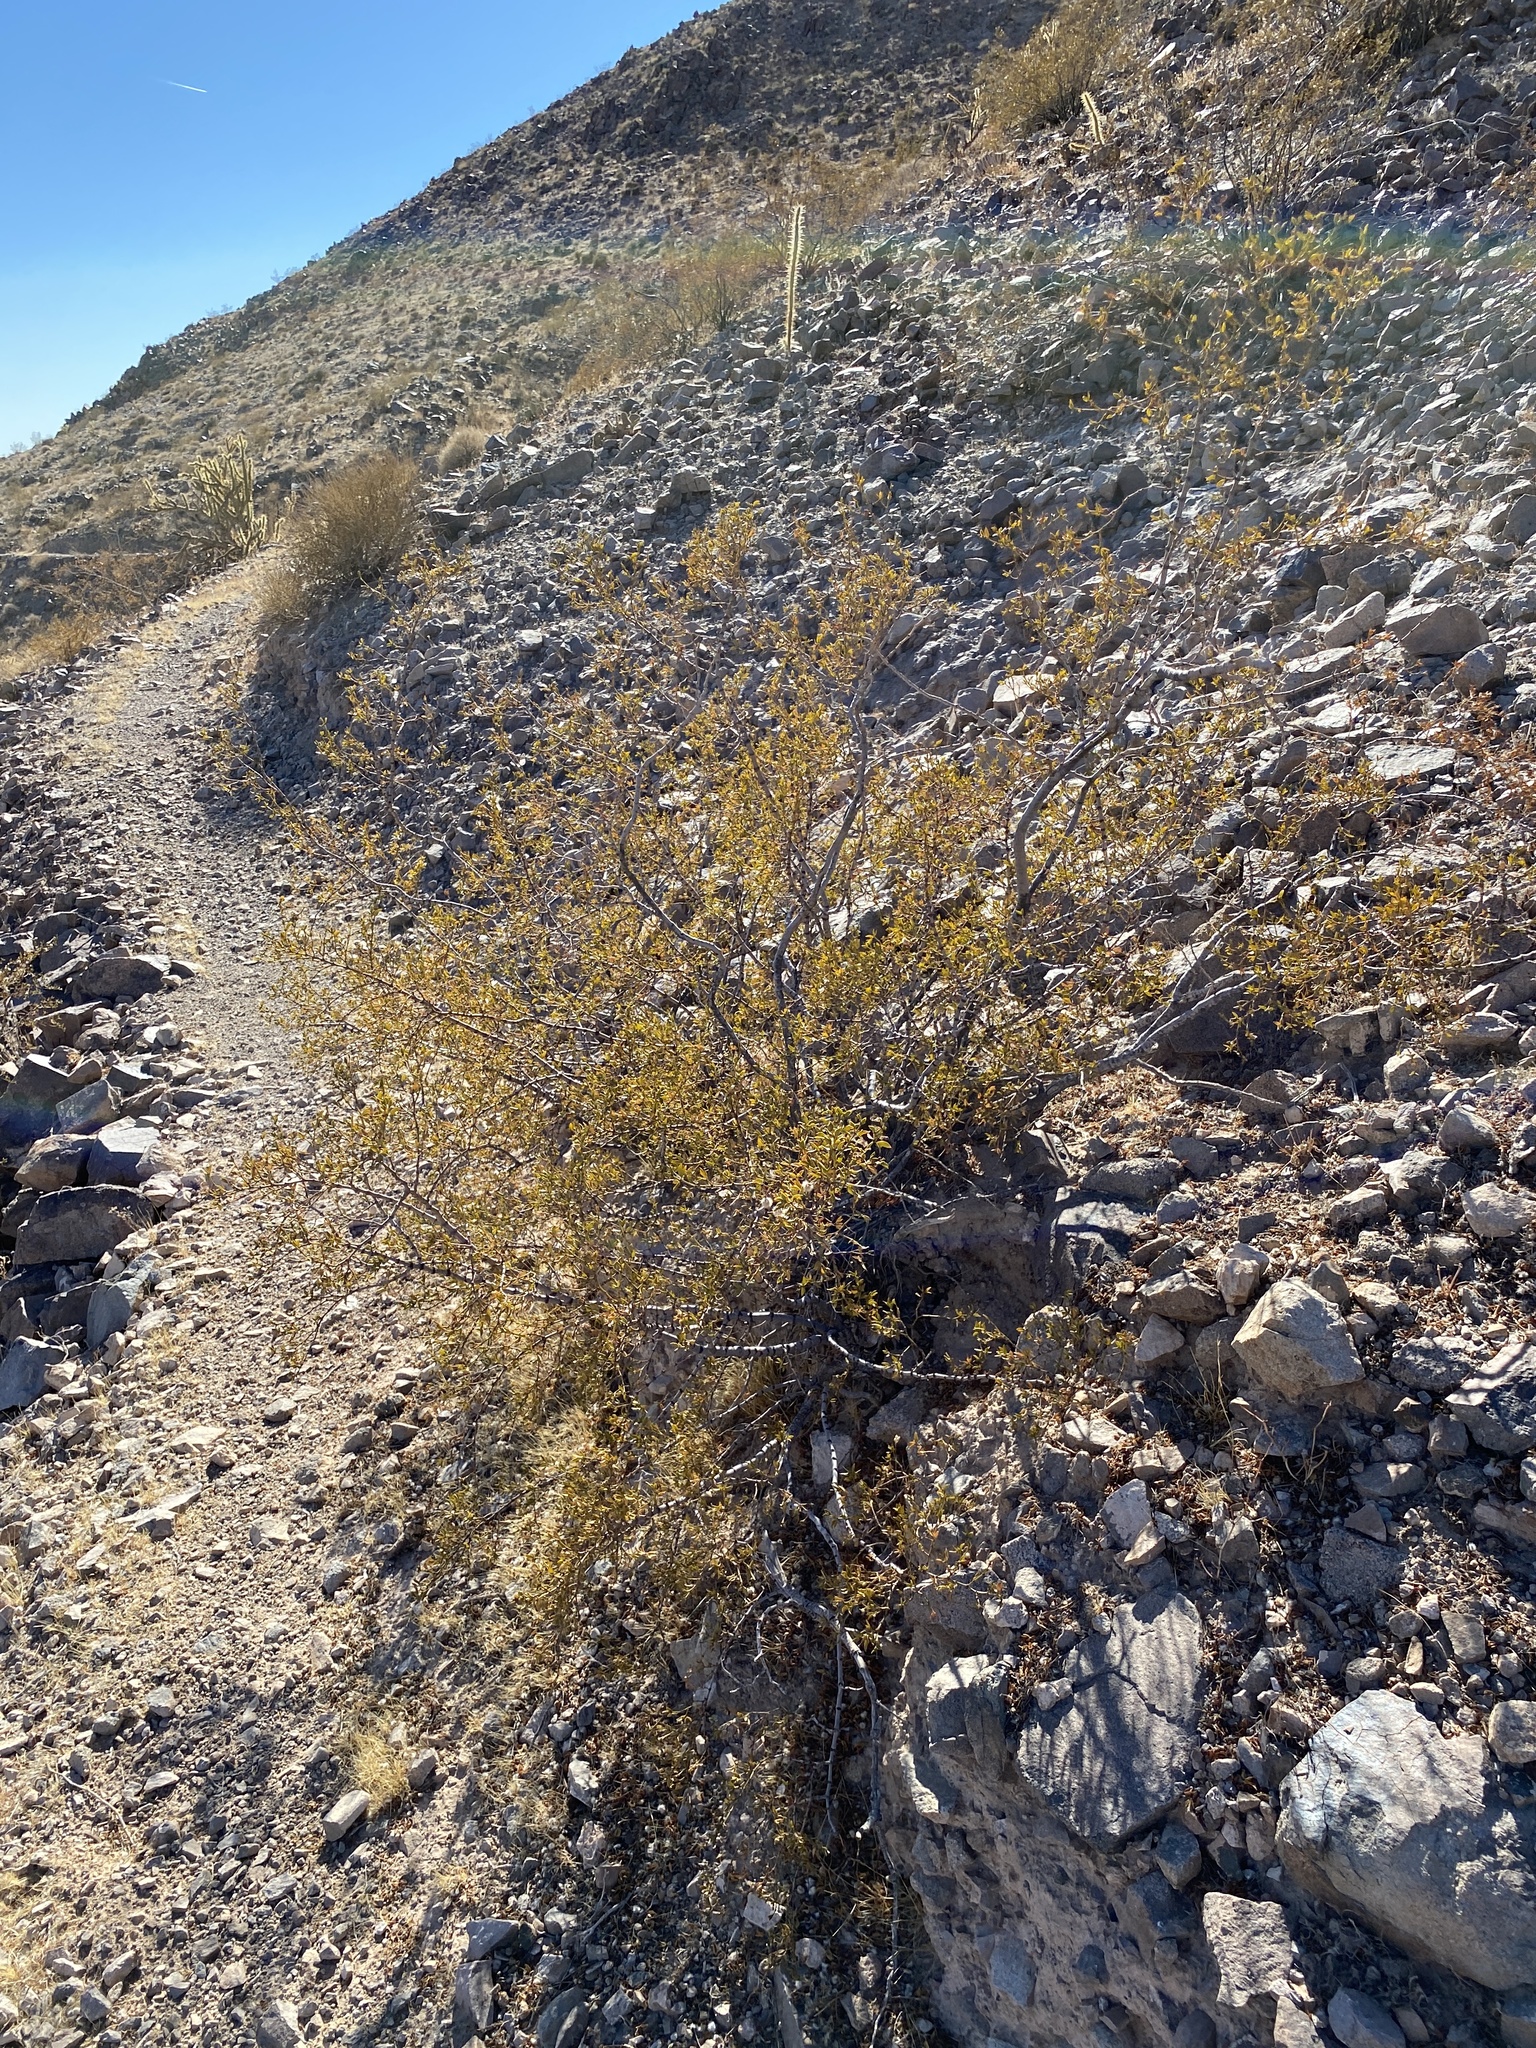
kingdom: Plantae
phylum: Tracheophyta
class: Magnoliopsida
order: Zygophyllales
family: Zygophyllaceae
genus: Larrea
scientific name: Larrea tridentata
